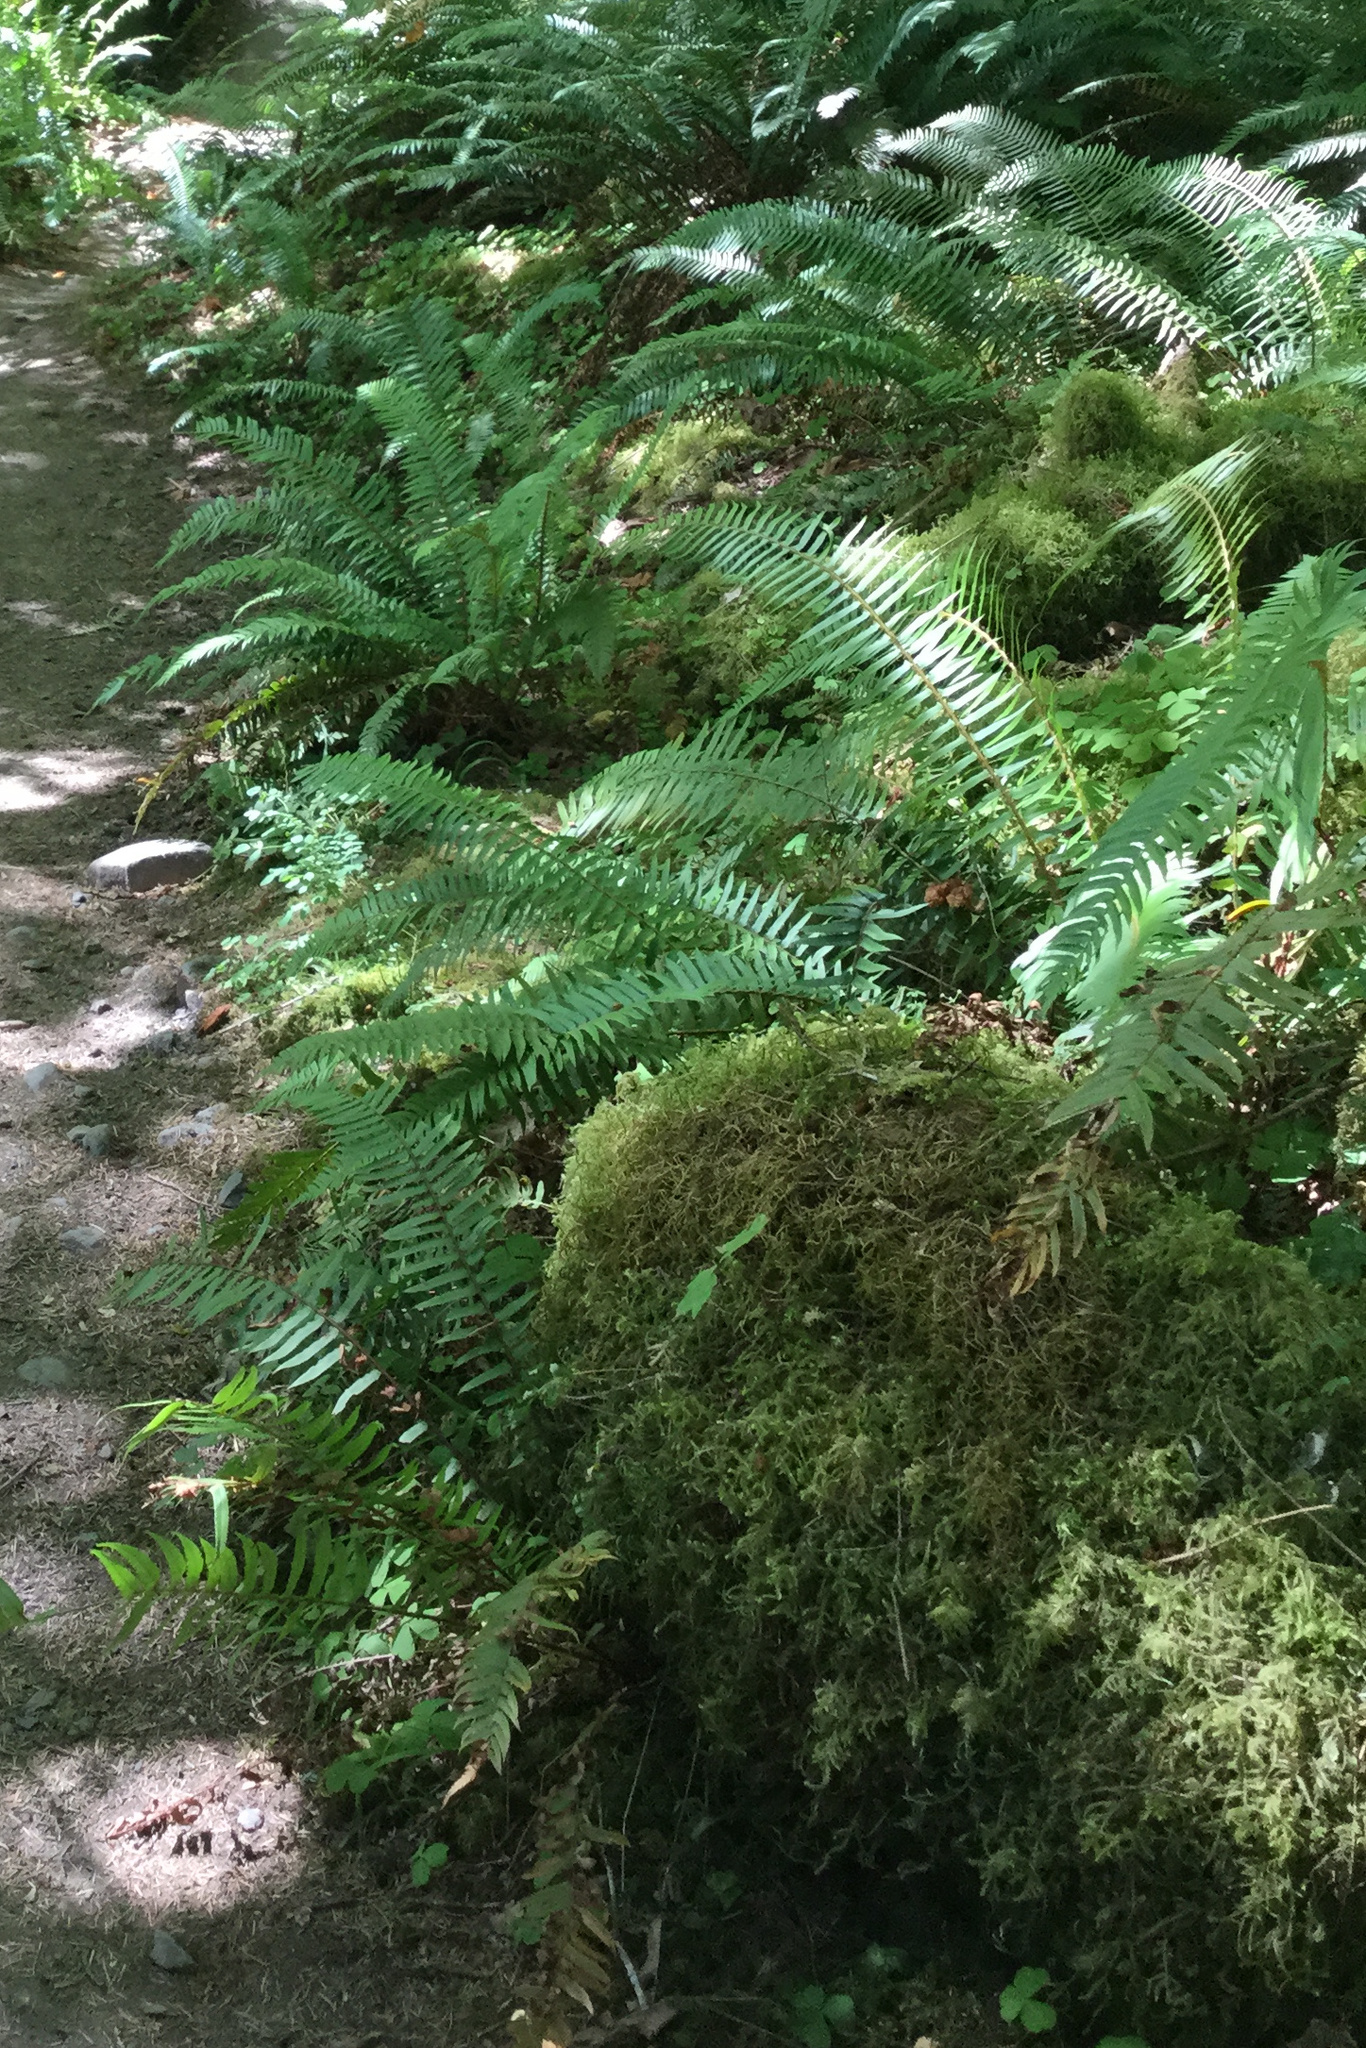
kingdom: Plantae
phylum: Tracheophyta
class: Polypodiopsida
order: Polypodiales
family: Dryopteridaceae
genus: Polystichum
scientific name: Polystichum munitum
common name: Western sword-fern
